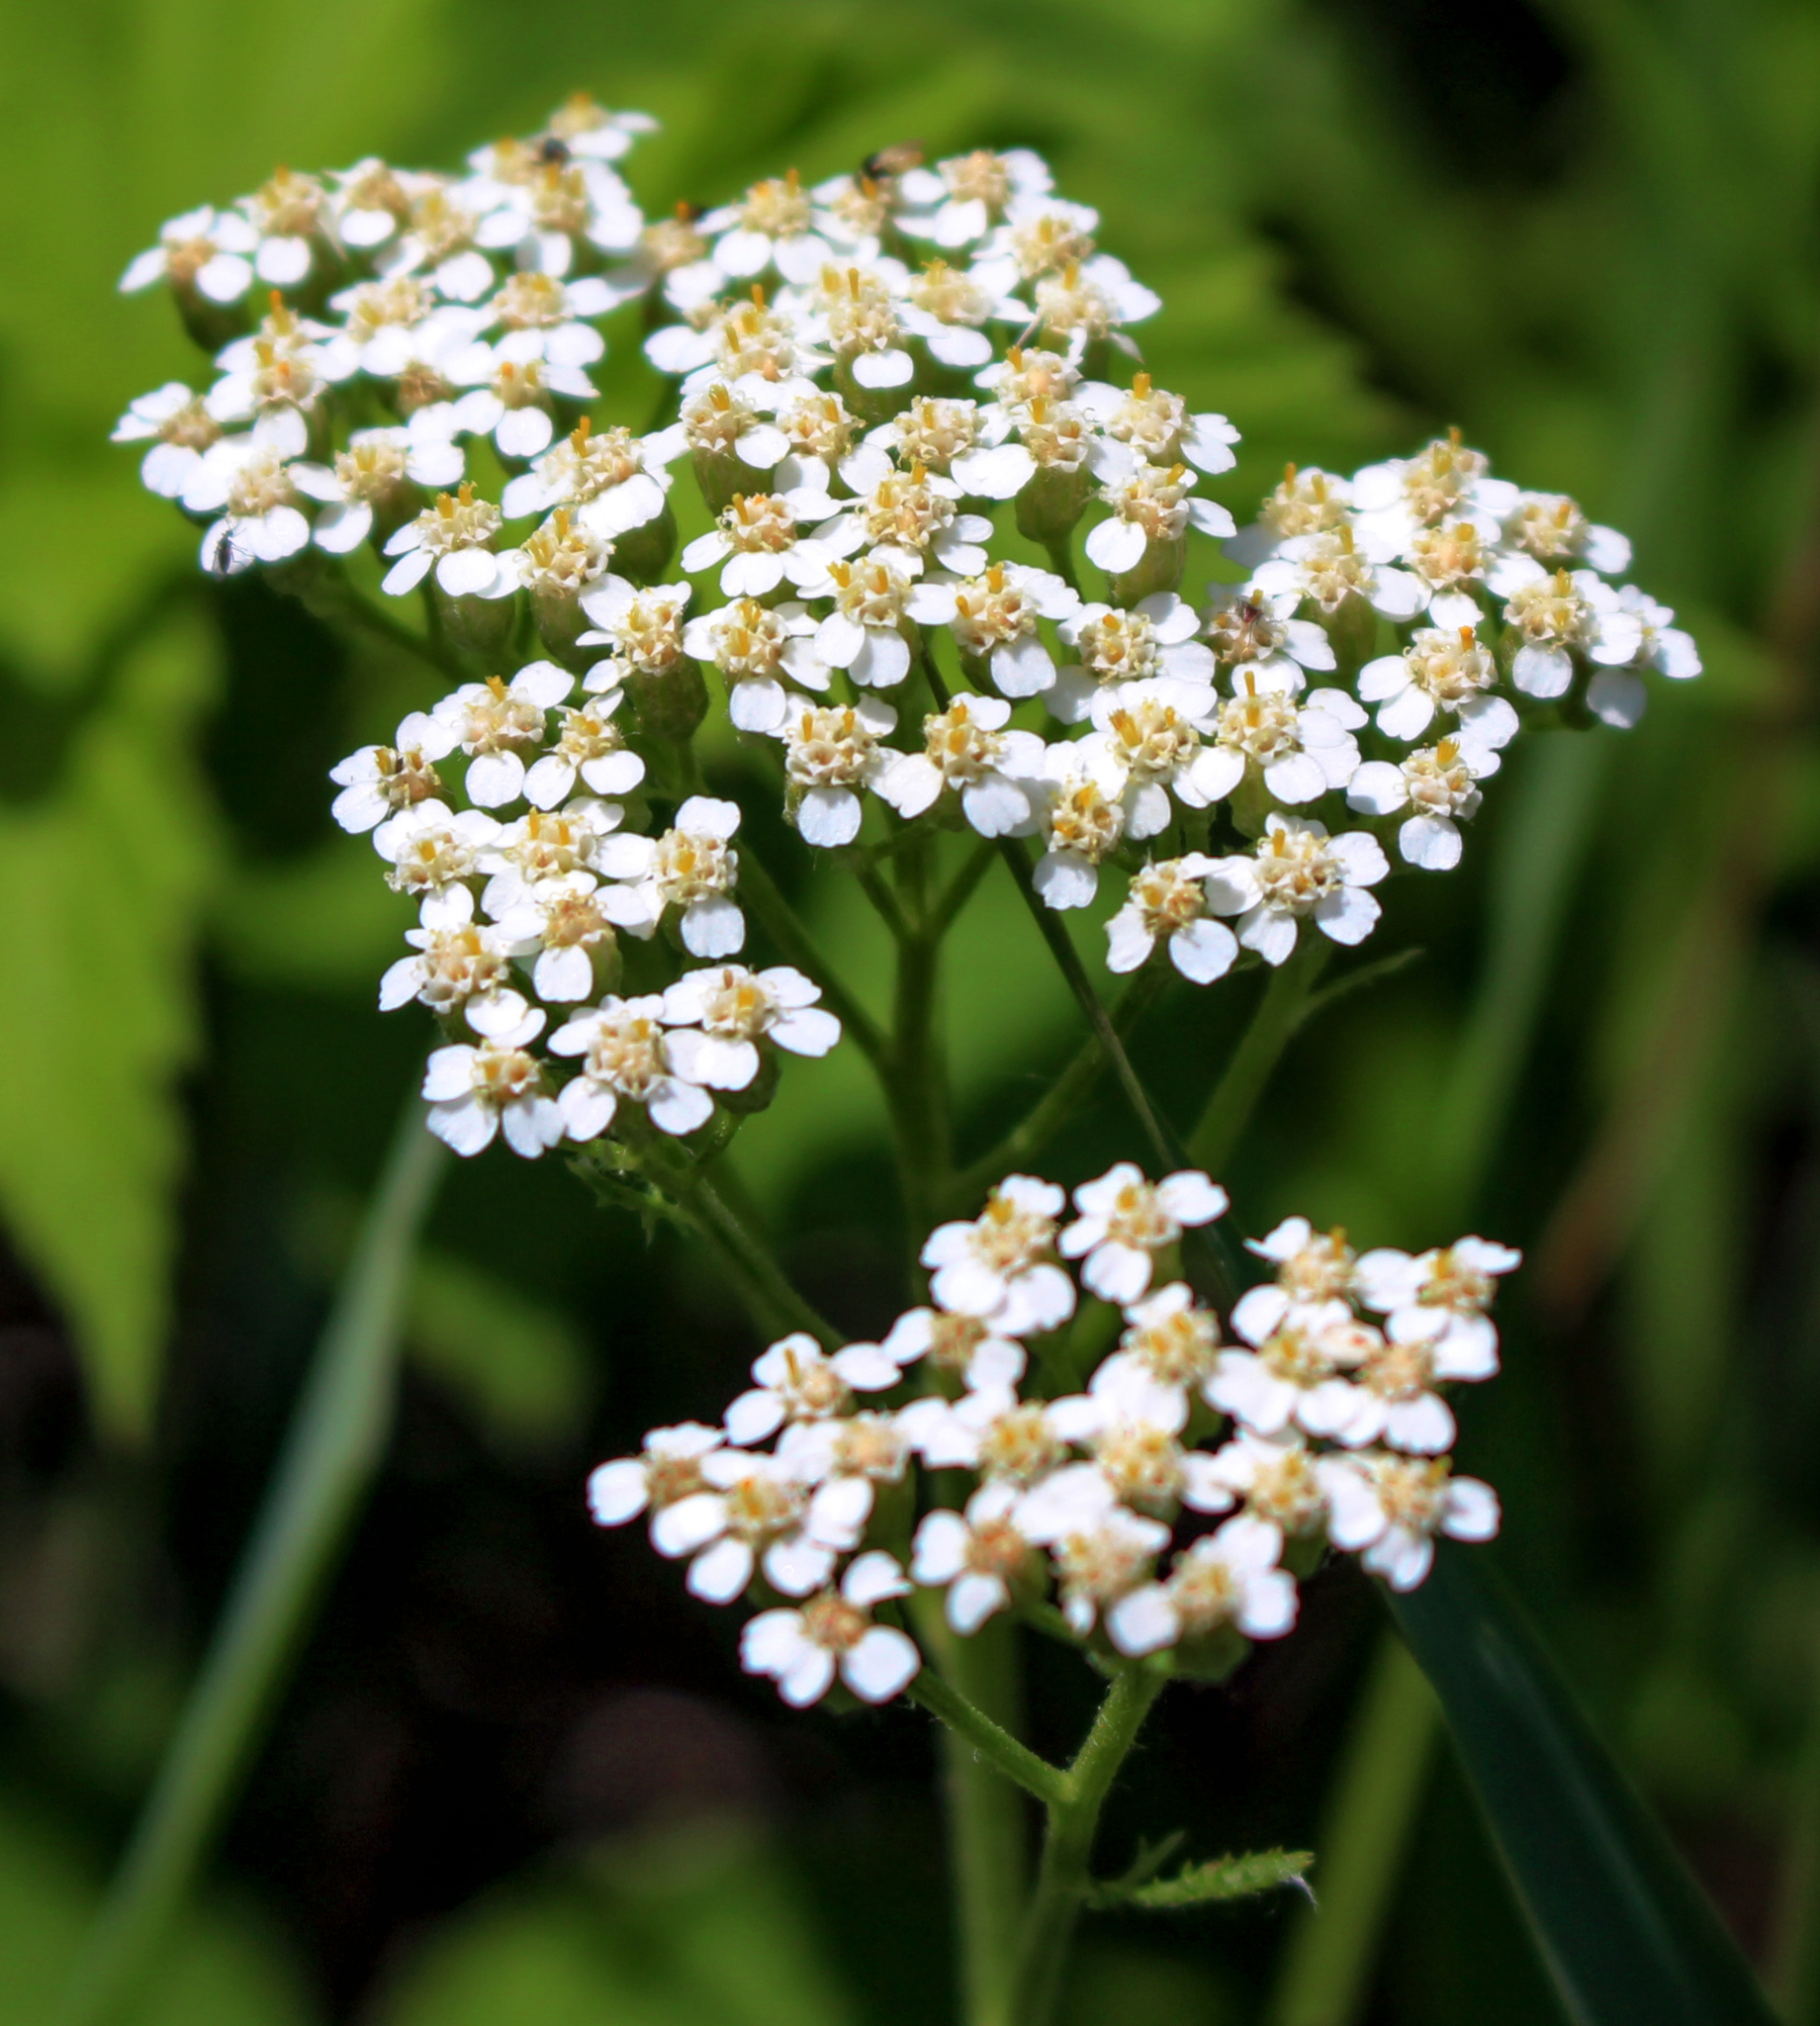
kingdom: Plantae
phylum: Tracheophyta
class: Magnoliopsida
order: Asterales
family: Asteraceae
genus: Achillea
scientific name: Achillea millefolium
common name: Yarrow
